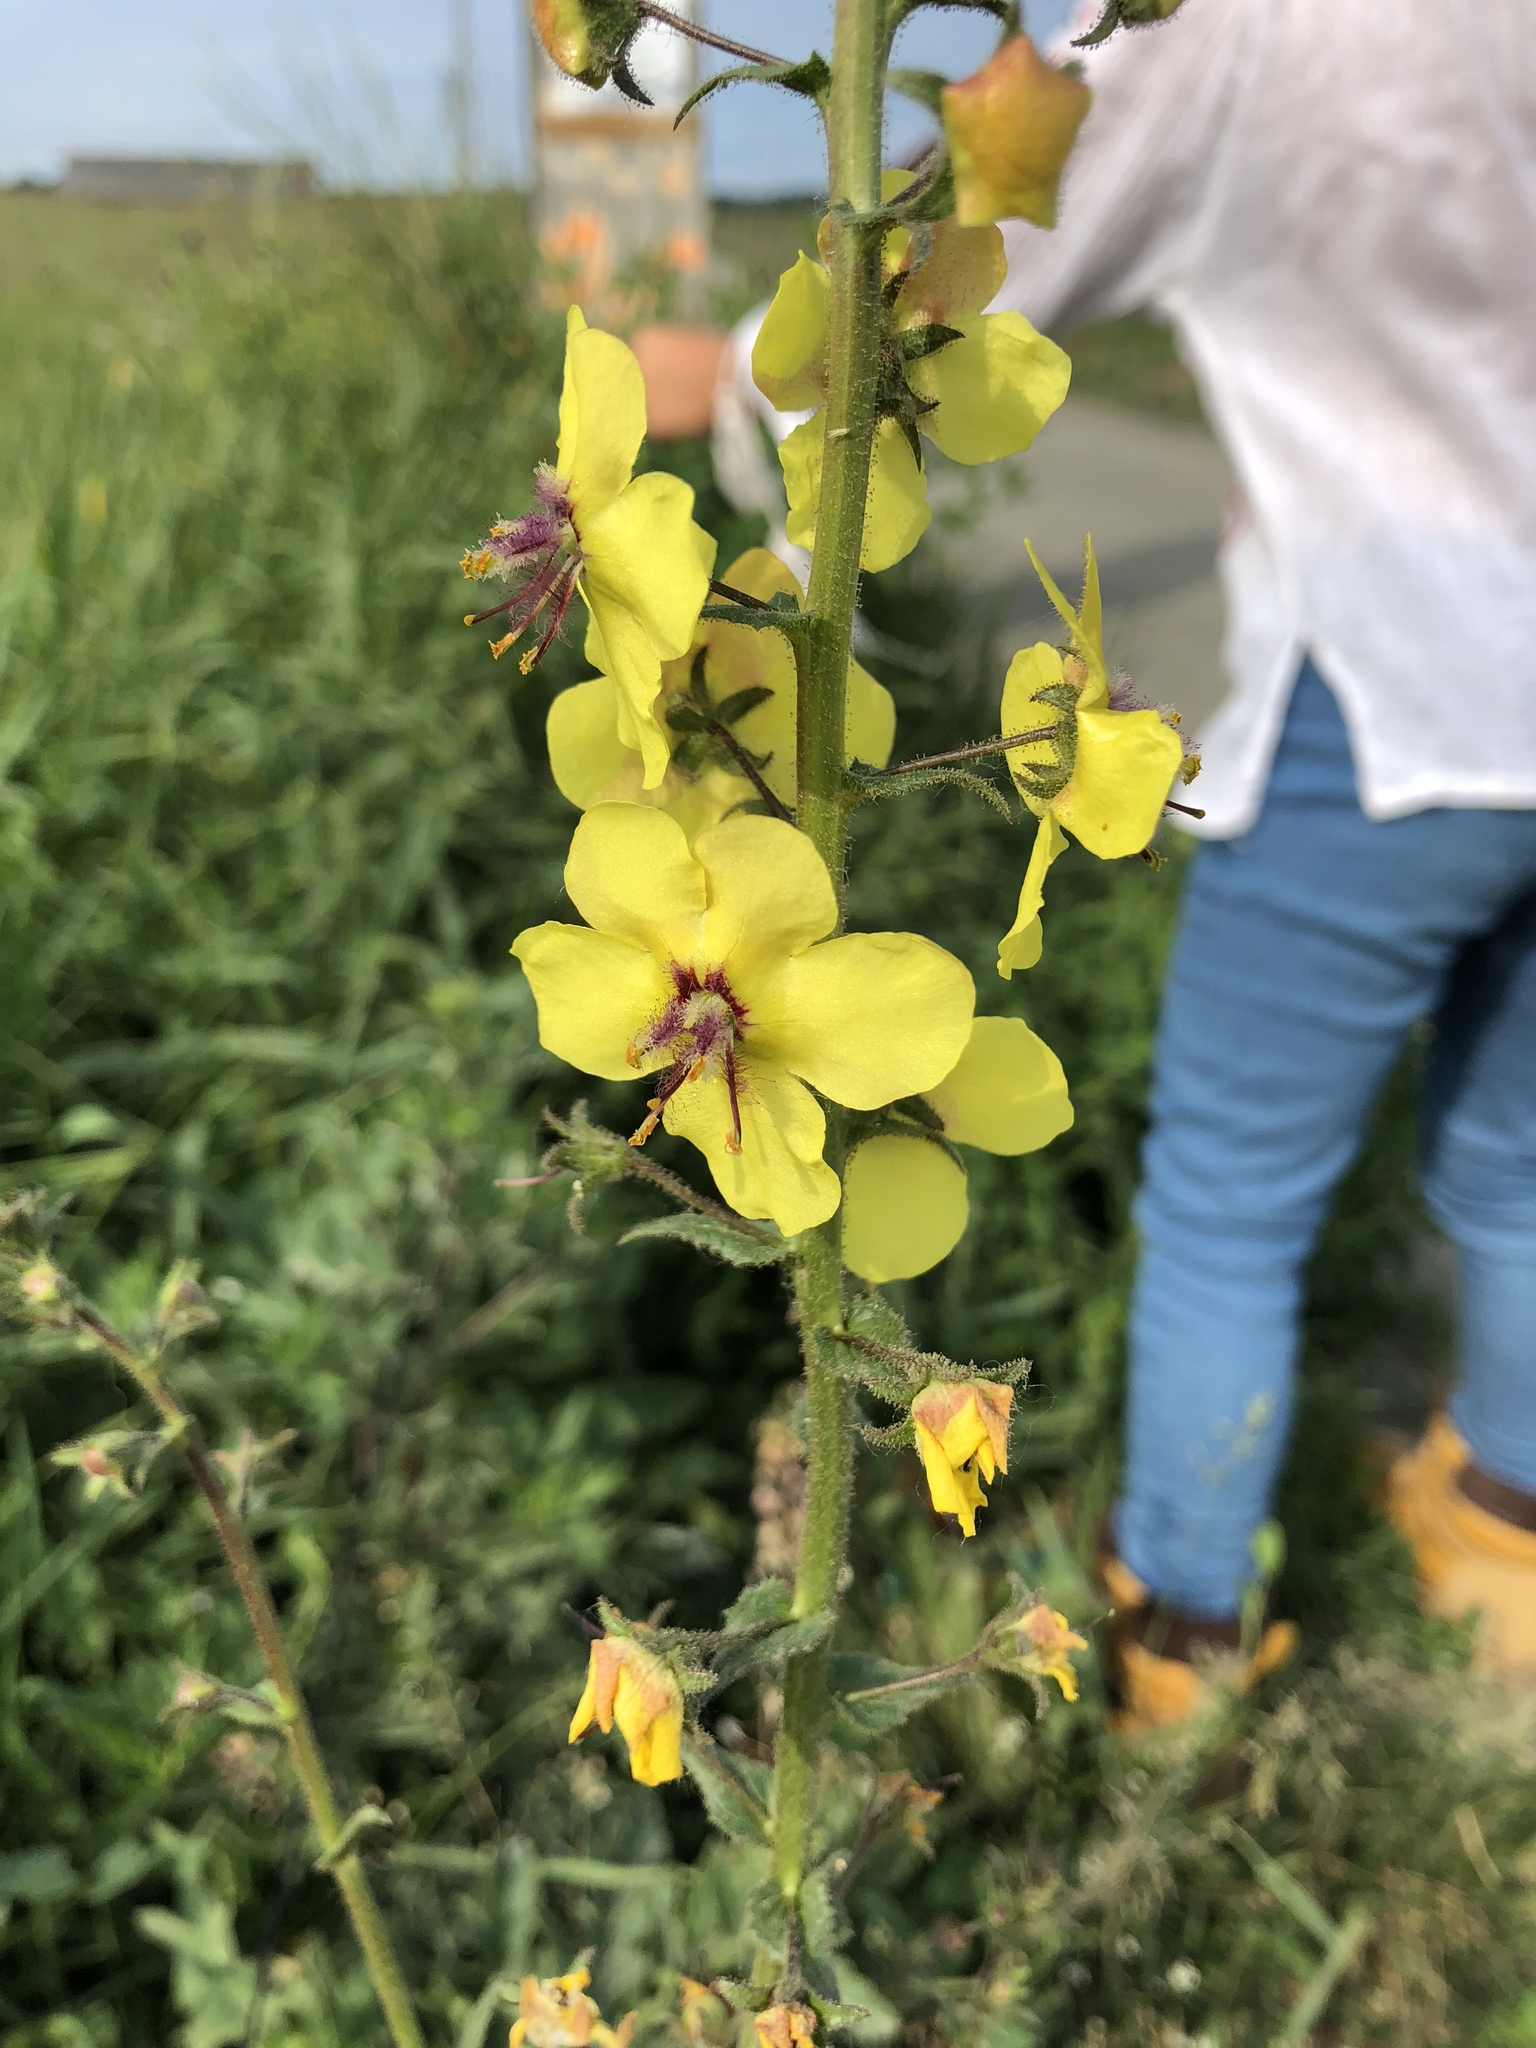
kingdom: Plantae
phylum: Tracheophyta
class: Magnoliopsida
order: Lamiales
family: Scrophulariaceae
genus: Verbascum
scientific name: Verbascum blattaria
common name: Moth mullein
